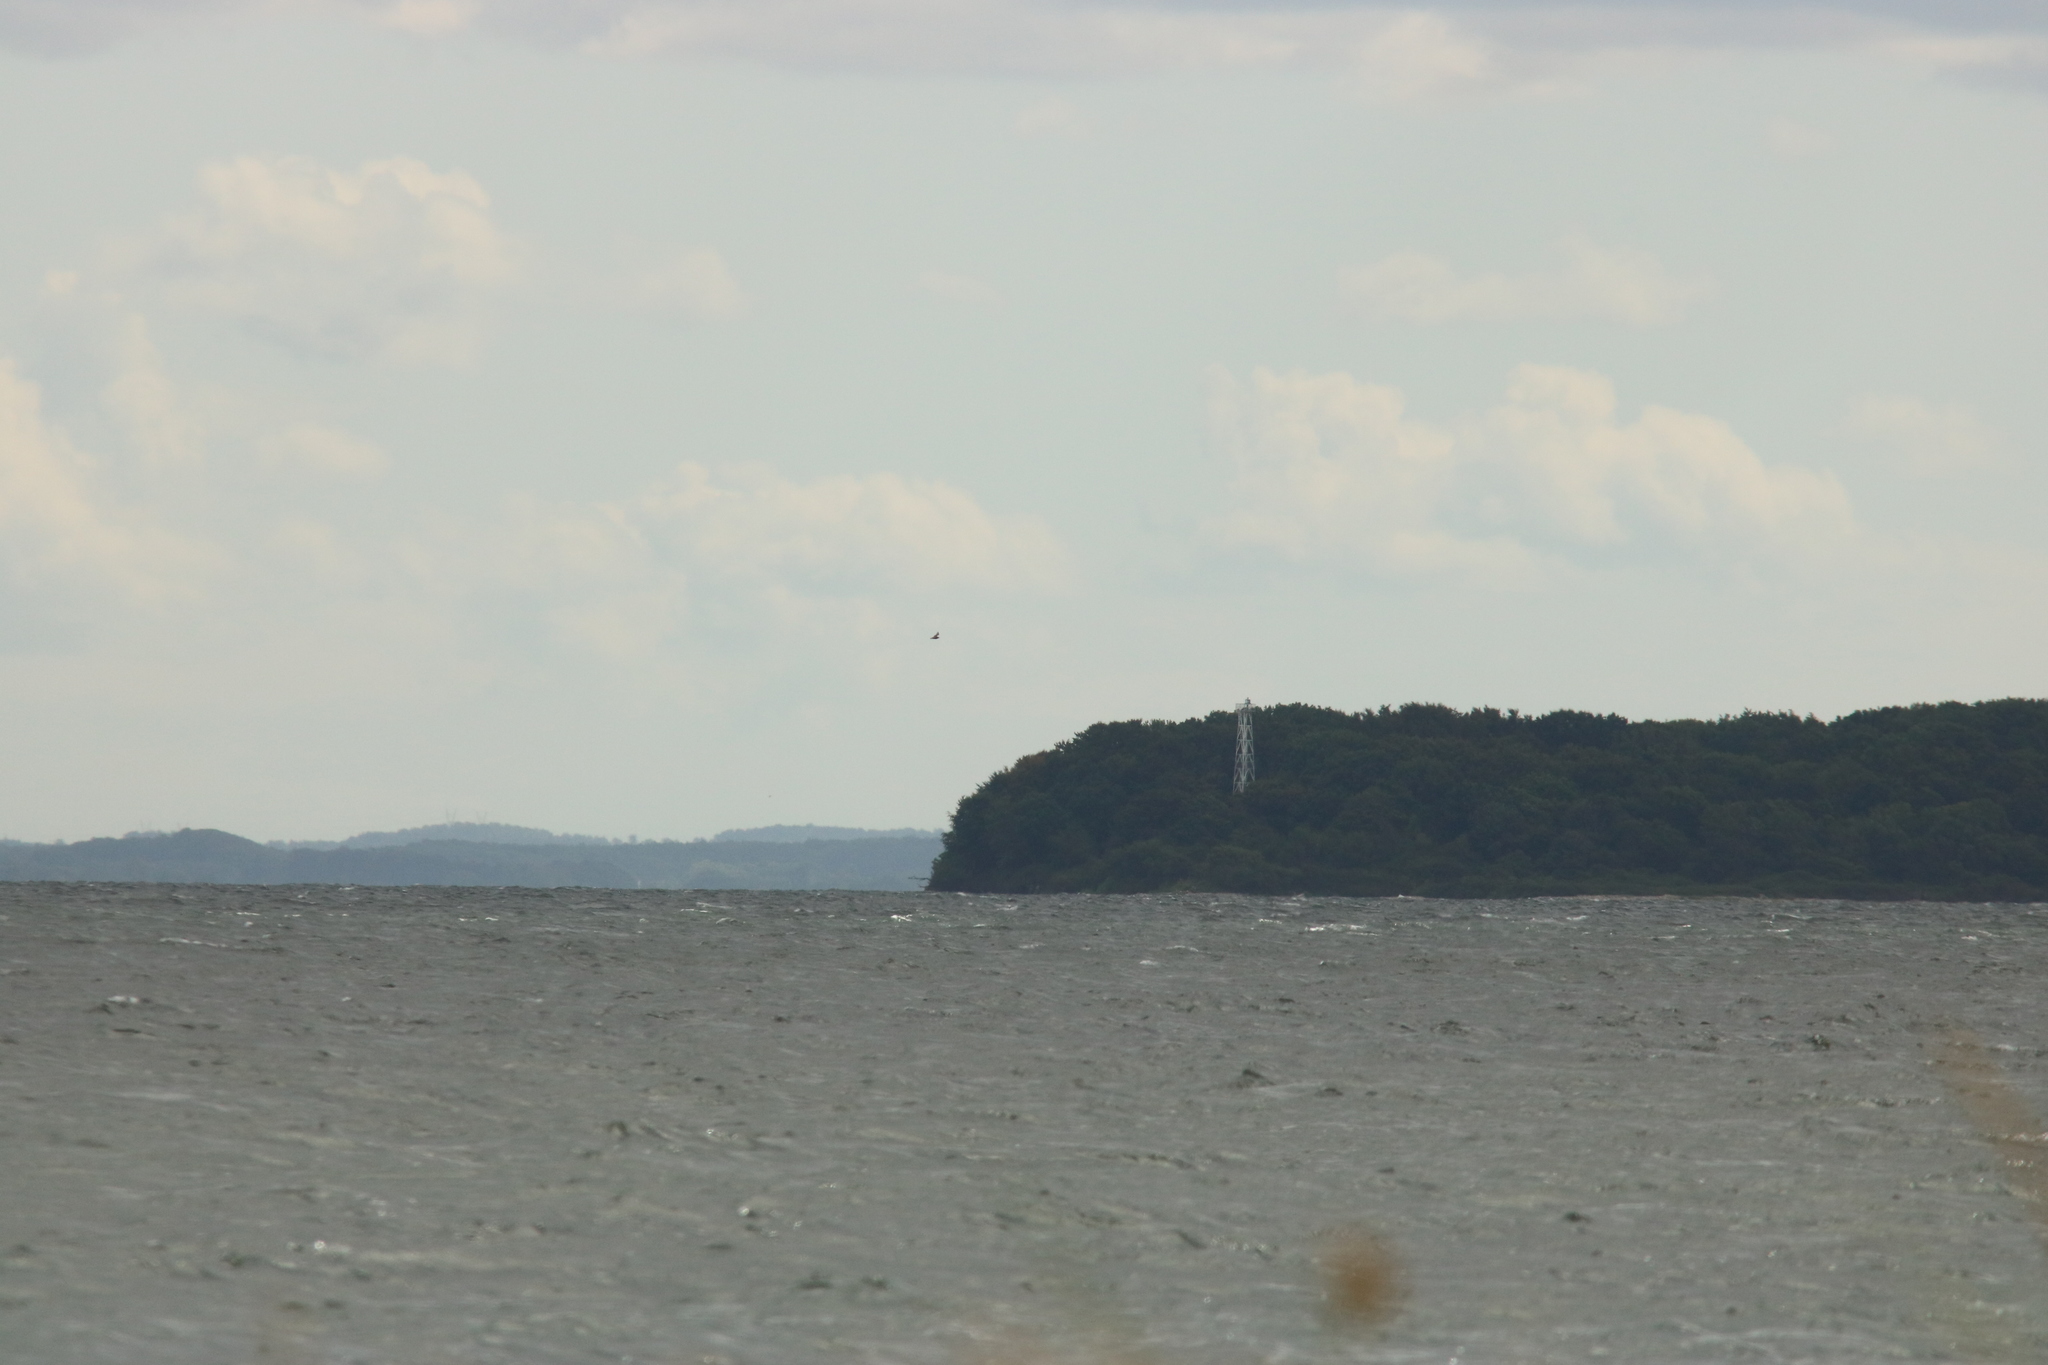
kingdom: Animalia
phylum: Chordata
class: Aves
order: Charadriiformes
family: Stercorariidae
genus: Stercorarius
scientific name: Stercorarius skua
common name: Great skua
